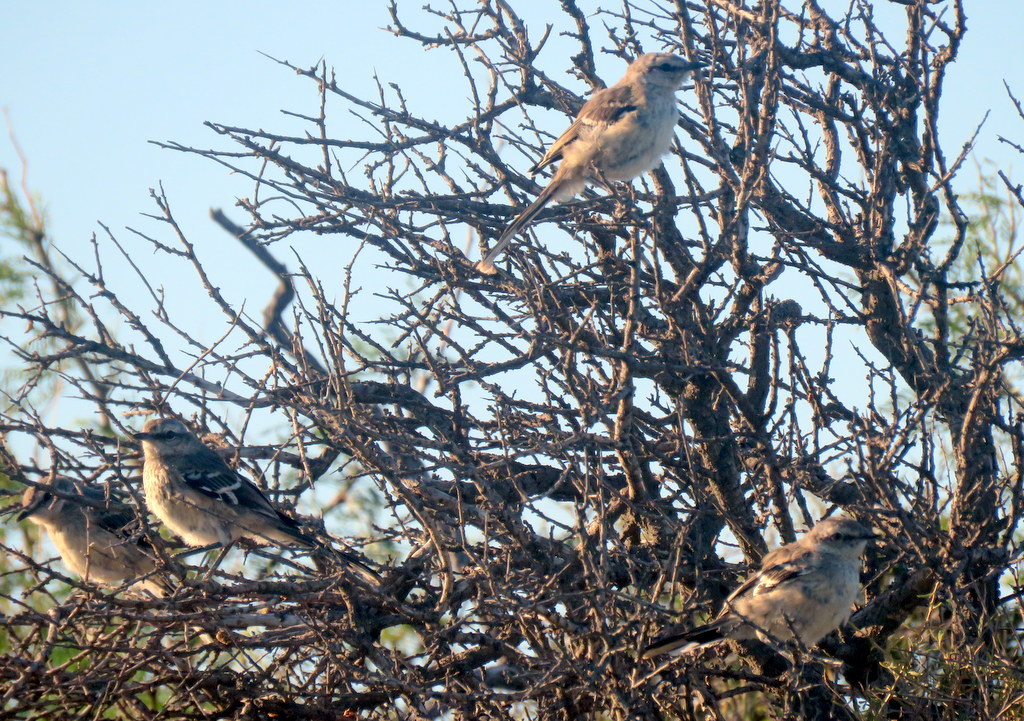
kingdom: Animalia
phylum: Chordata
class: Aves
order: Passeriformes
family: Mimidae
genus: Mimus
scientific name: Mimus patagonicus
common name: Patagonian mockingbird
